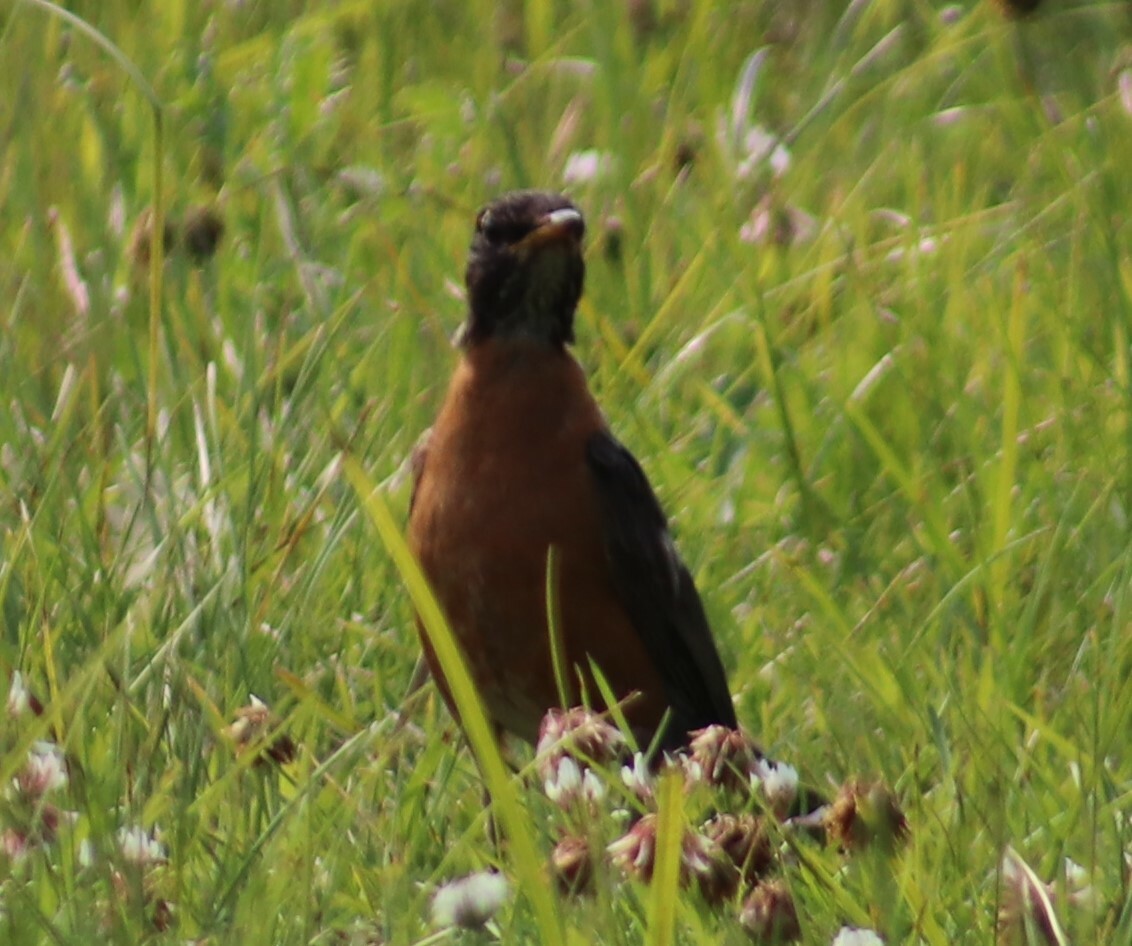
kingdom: Animalia
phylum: Chordata
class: Aves
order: Passeriformes
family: Turdidae
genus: Turdus
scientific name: Turdus migratorius
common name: American robin
